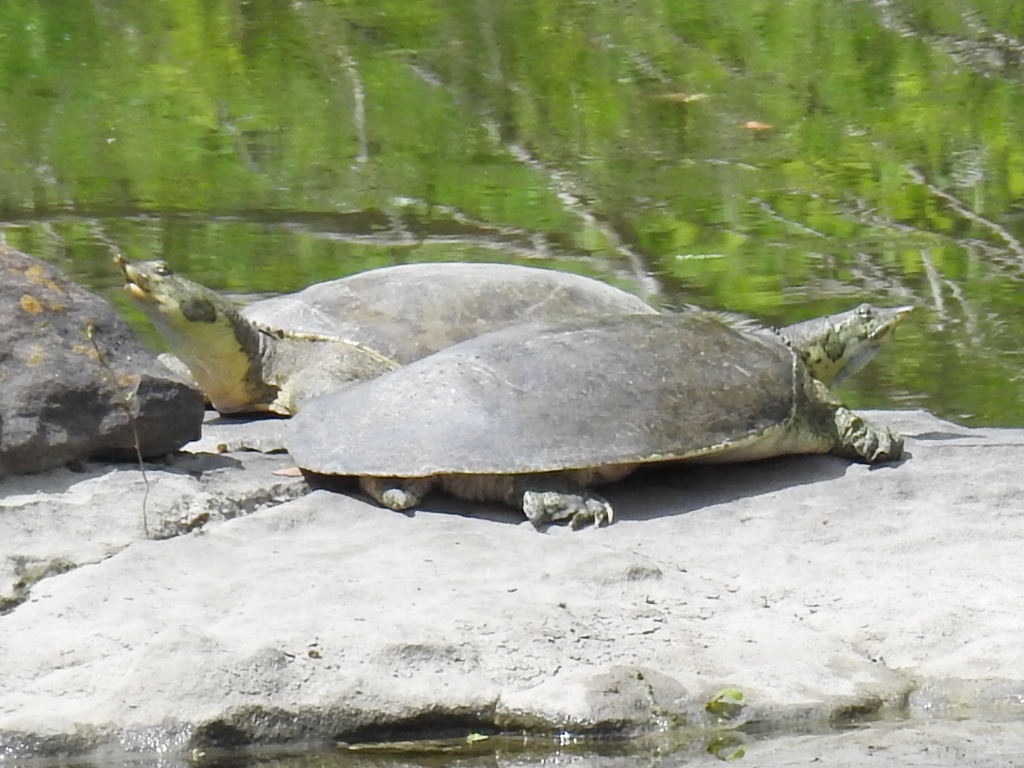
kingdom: Animalia
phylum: Chordata
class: Testudines
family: Trionychidae
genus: Apalone
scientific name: Apalone spinifera
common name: Spiny softshell turtle
